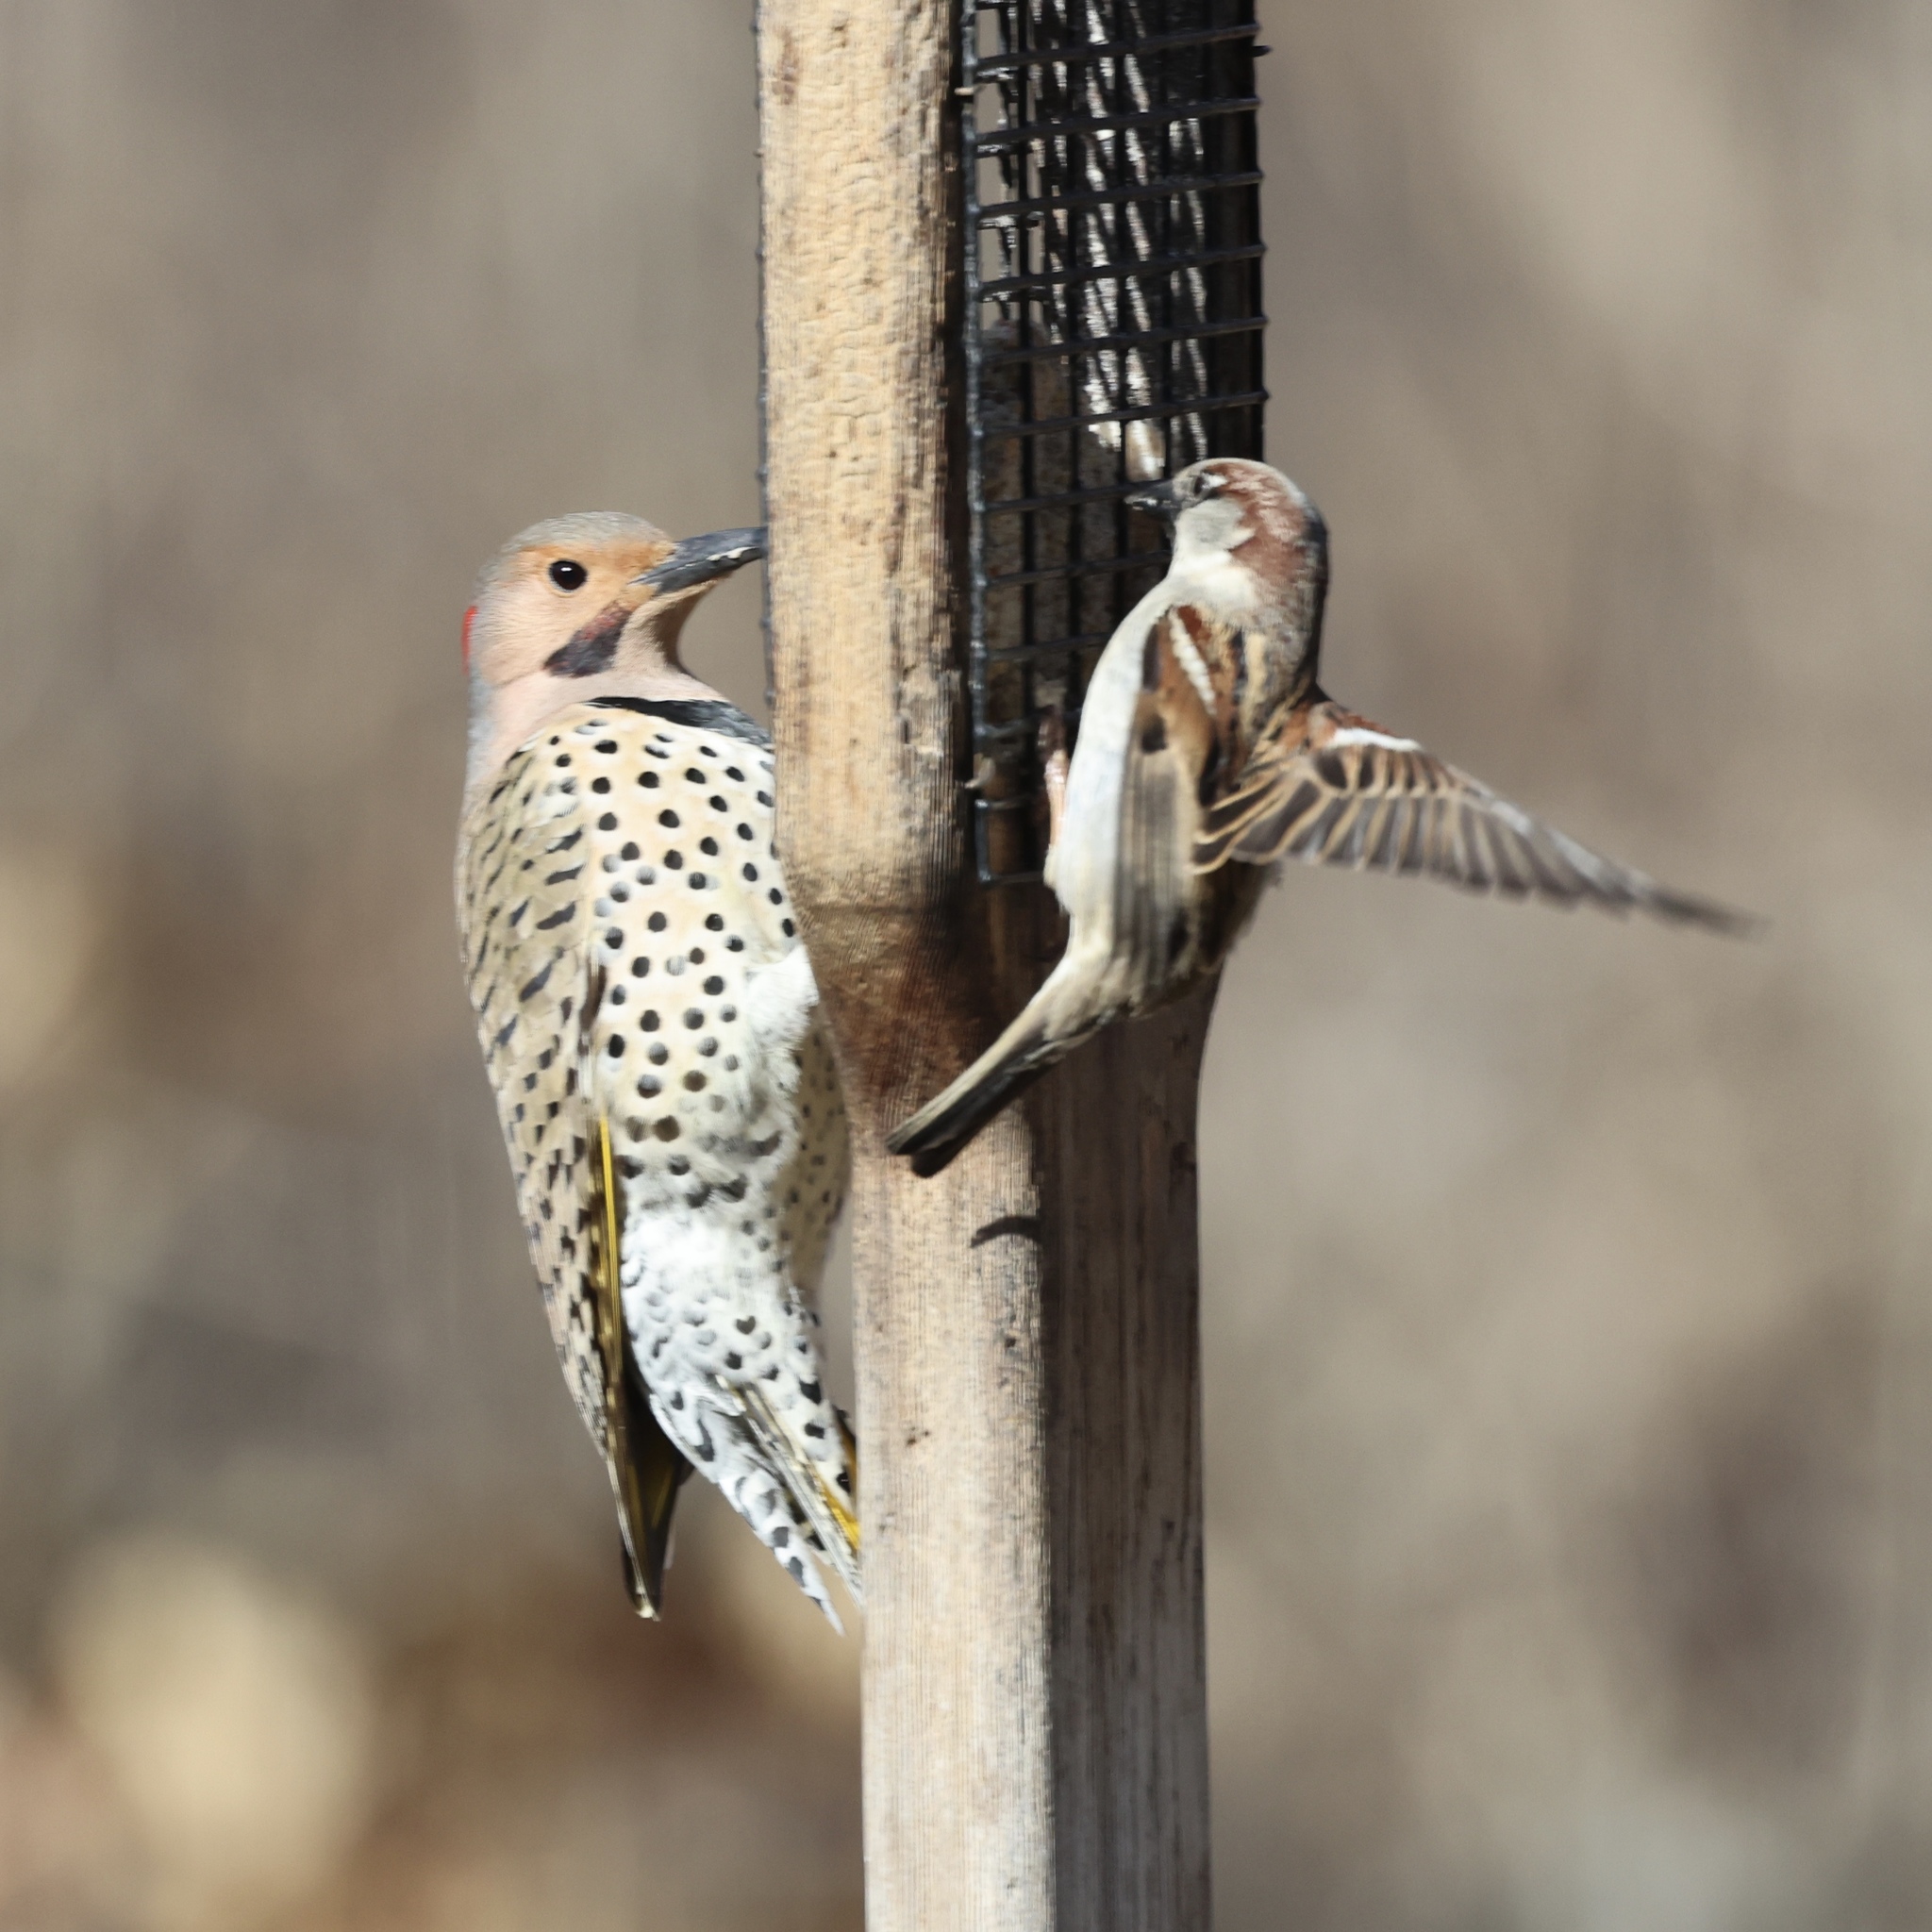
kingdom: Animalia
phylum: Chordata
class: Aves
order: Piciformes
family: Picidae
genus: Colaptes
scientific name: Colaptes auratus
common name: Northern flicker
